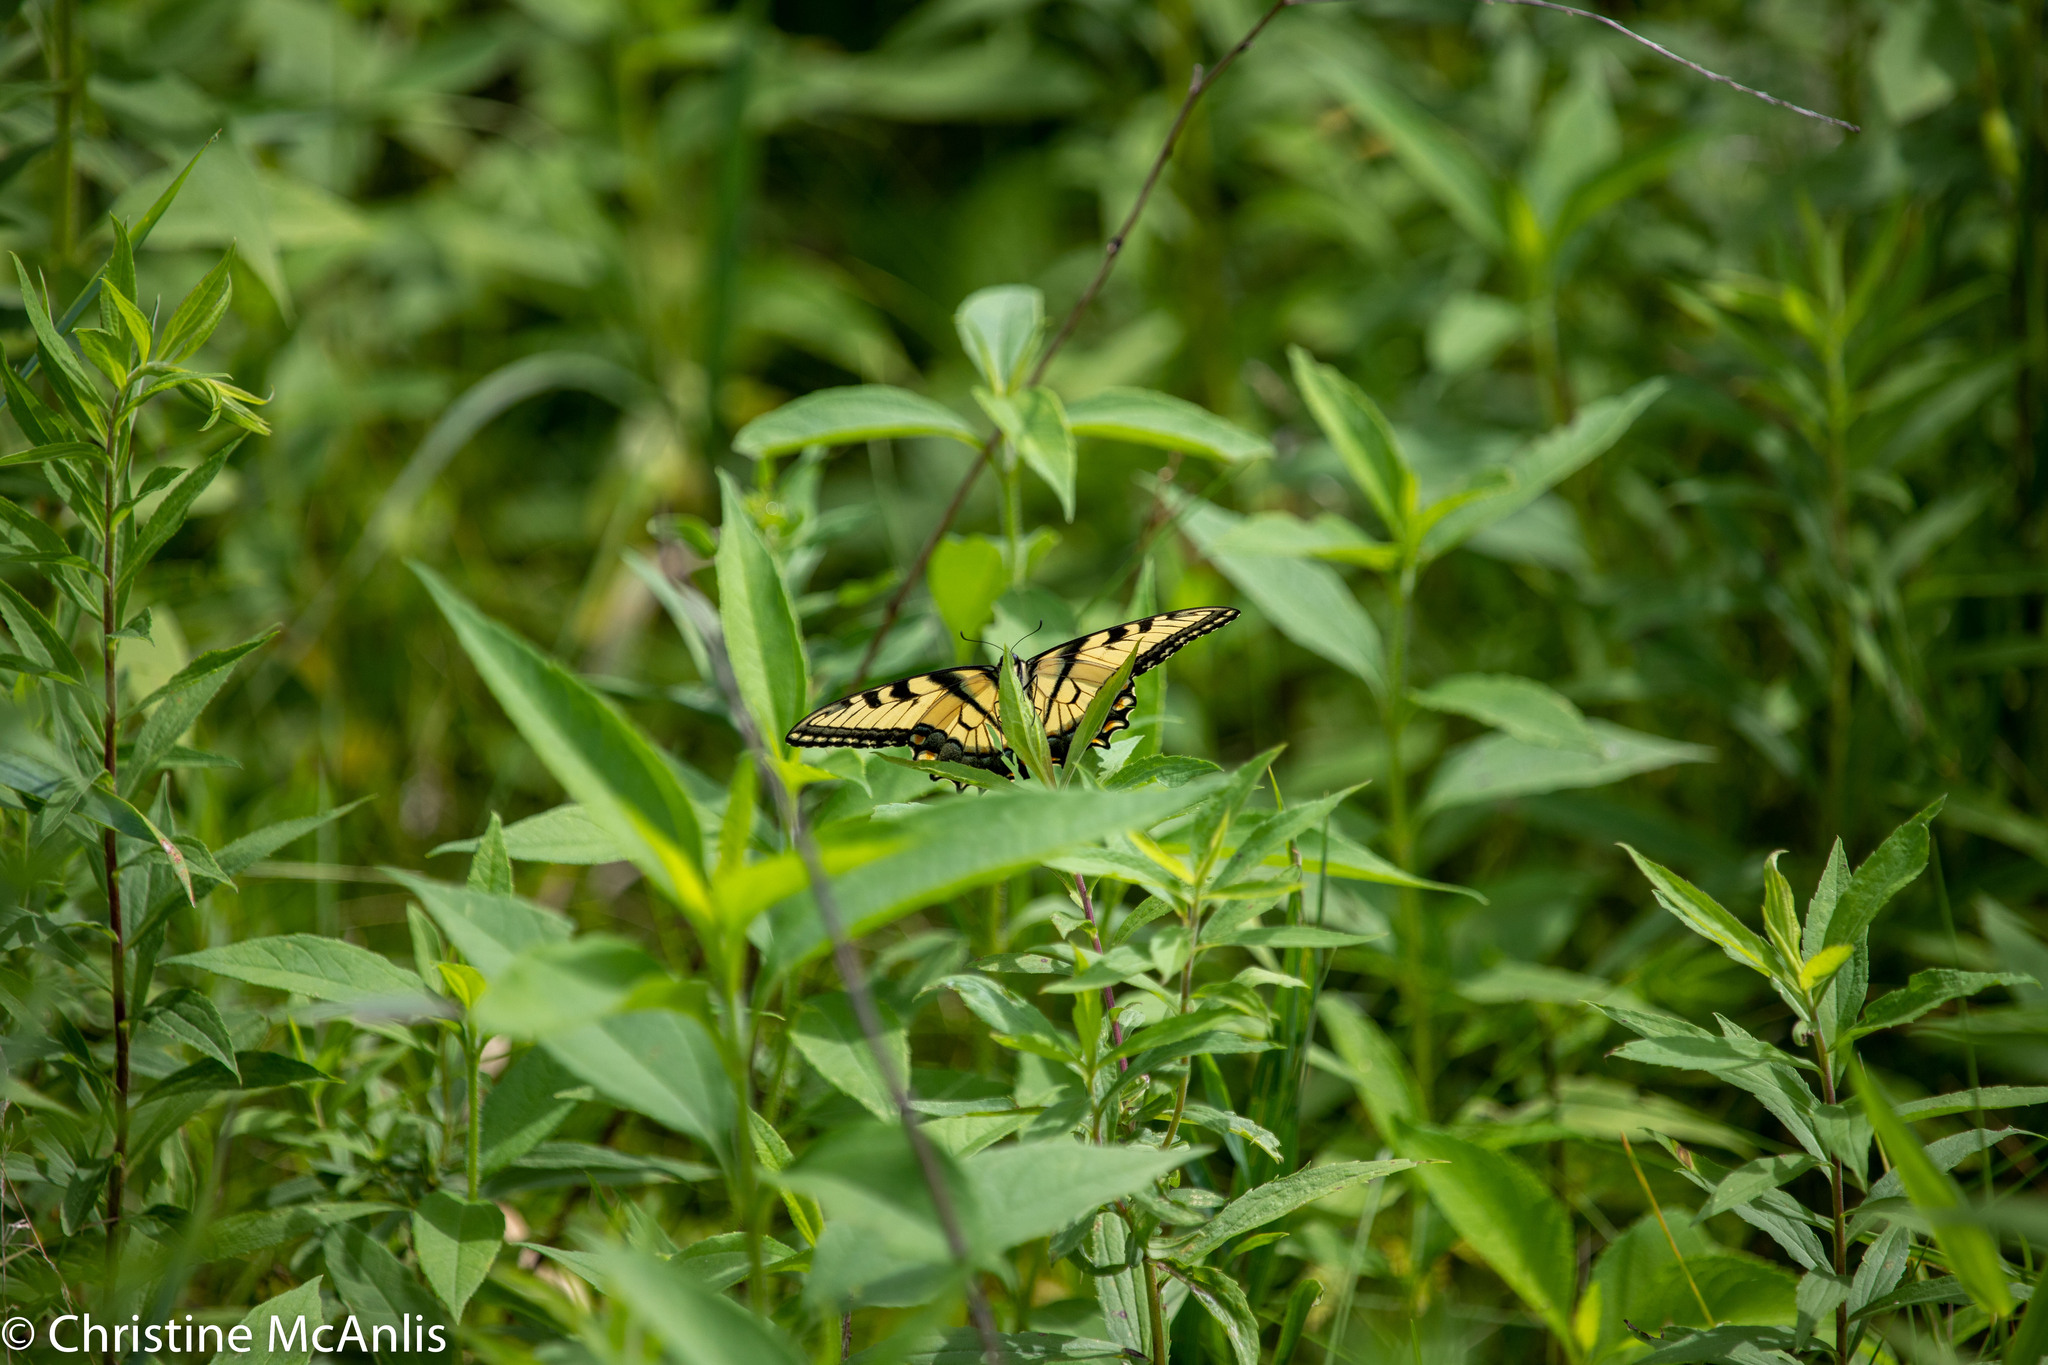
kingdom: Animalia
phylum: Arthropoda
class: Insecta
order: Lepidoptera
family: Papilionidae
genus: Papilio
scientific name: Papilio glaucus
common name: Tiger swallowtail
